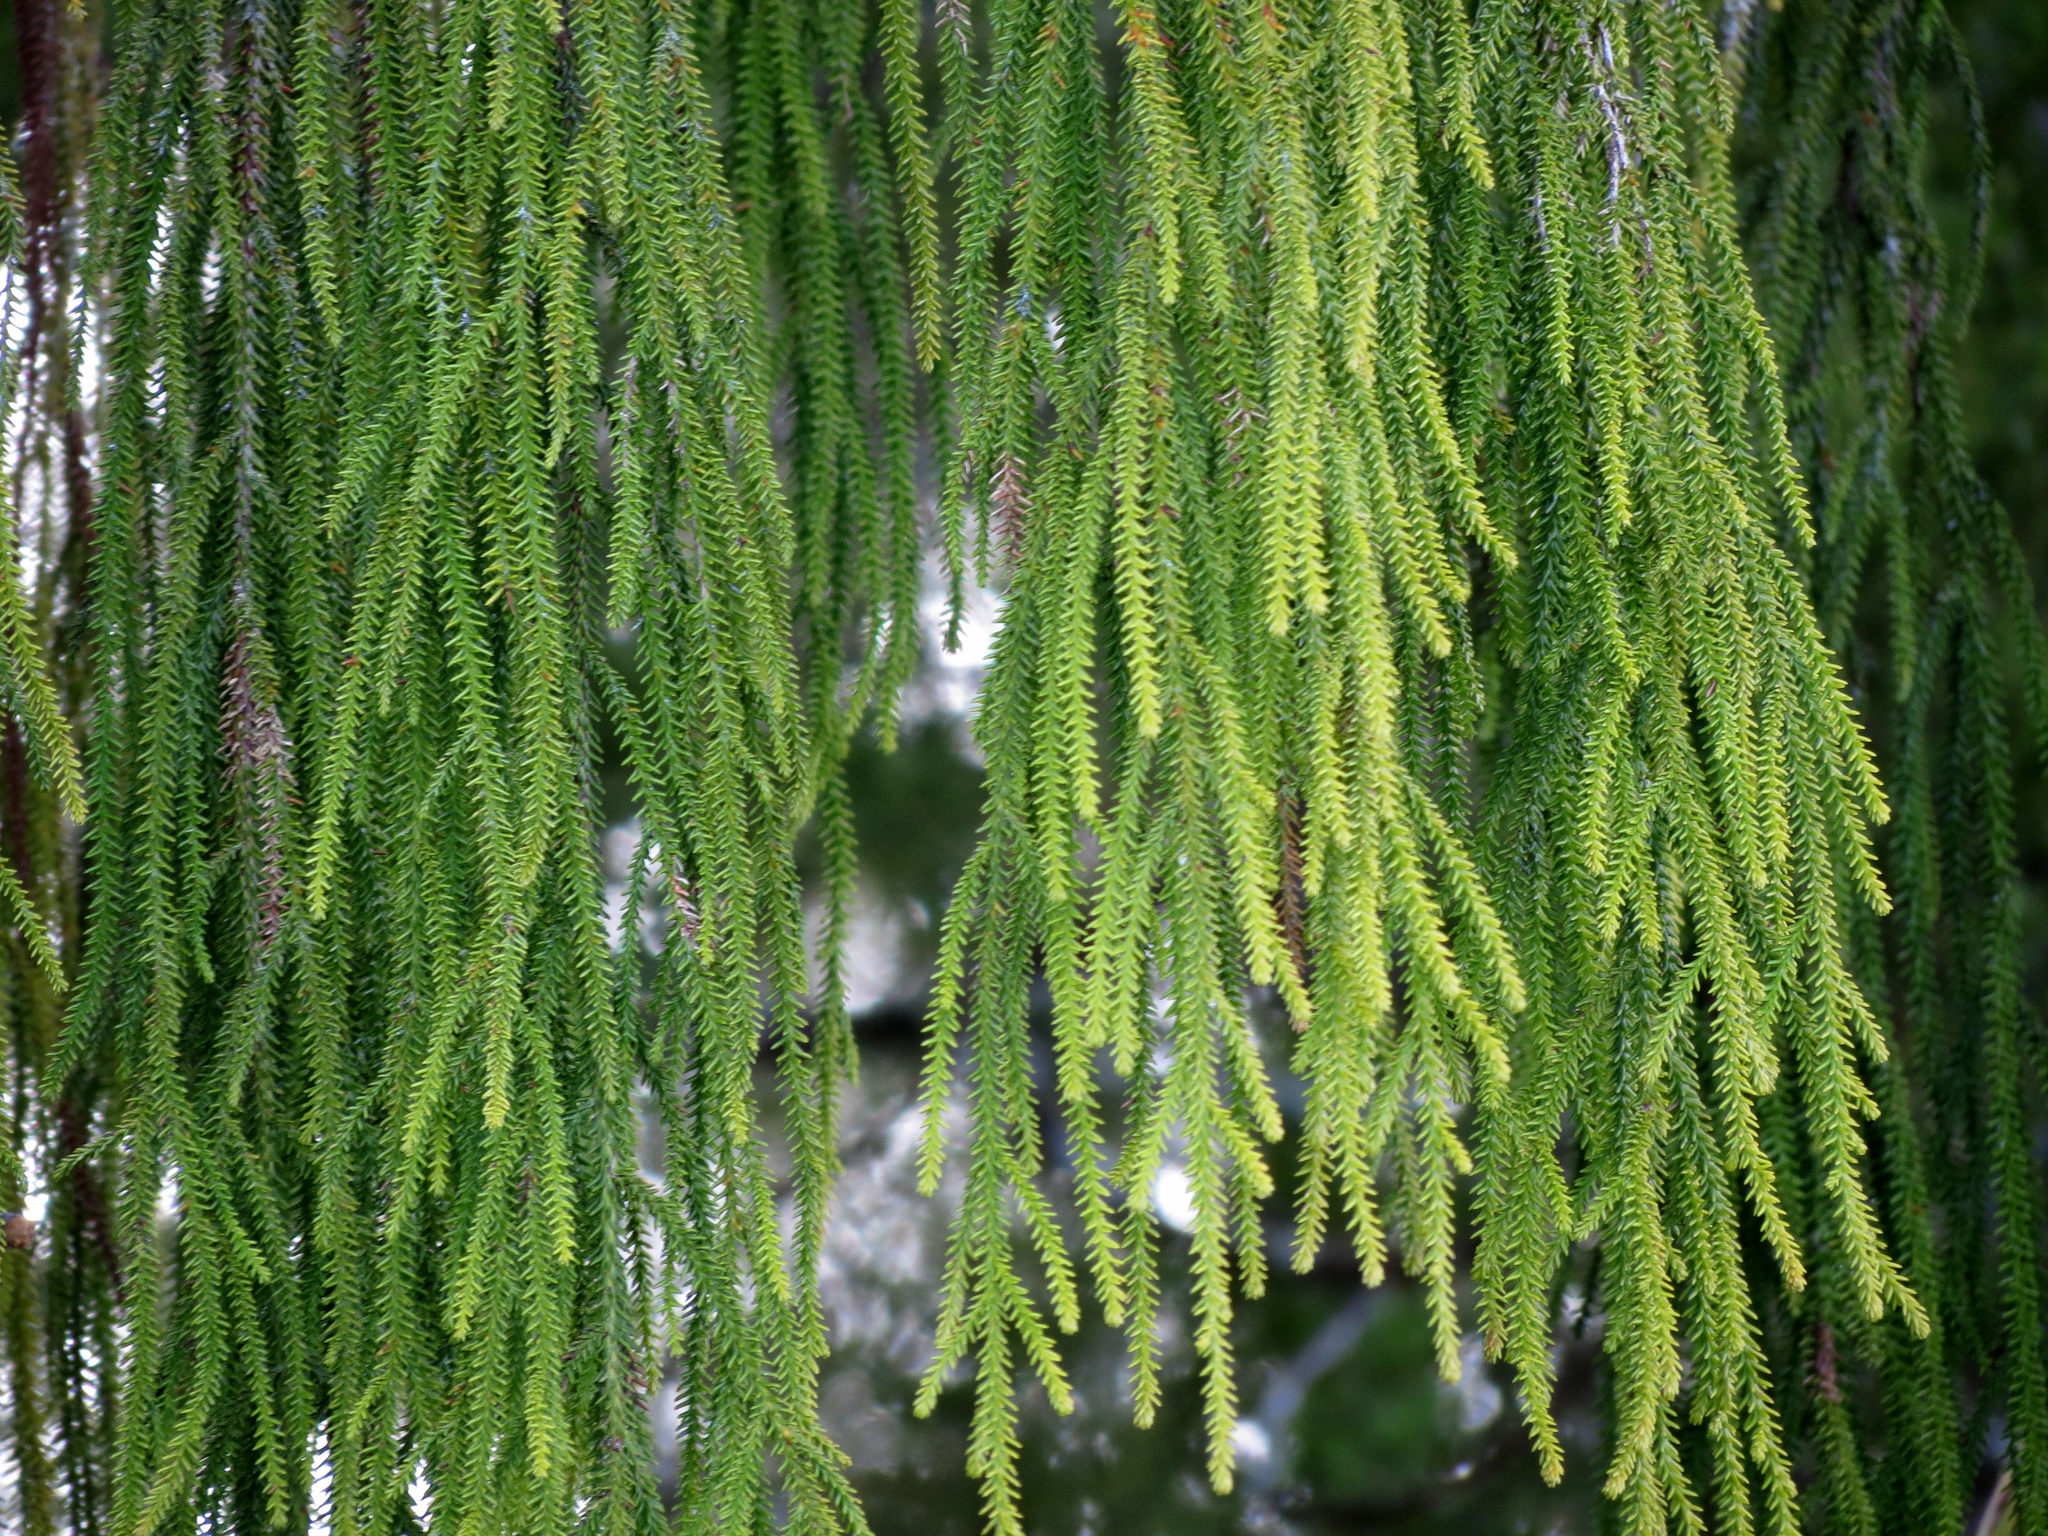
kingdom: Plantae
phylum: Tracheophyta
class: Pinopsida
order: Pinales
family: Podocarpaceae
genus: Dacrydium
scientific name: Dacrydium cupressinum
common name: Red pine
